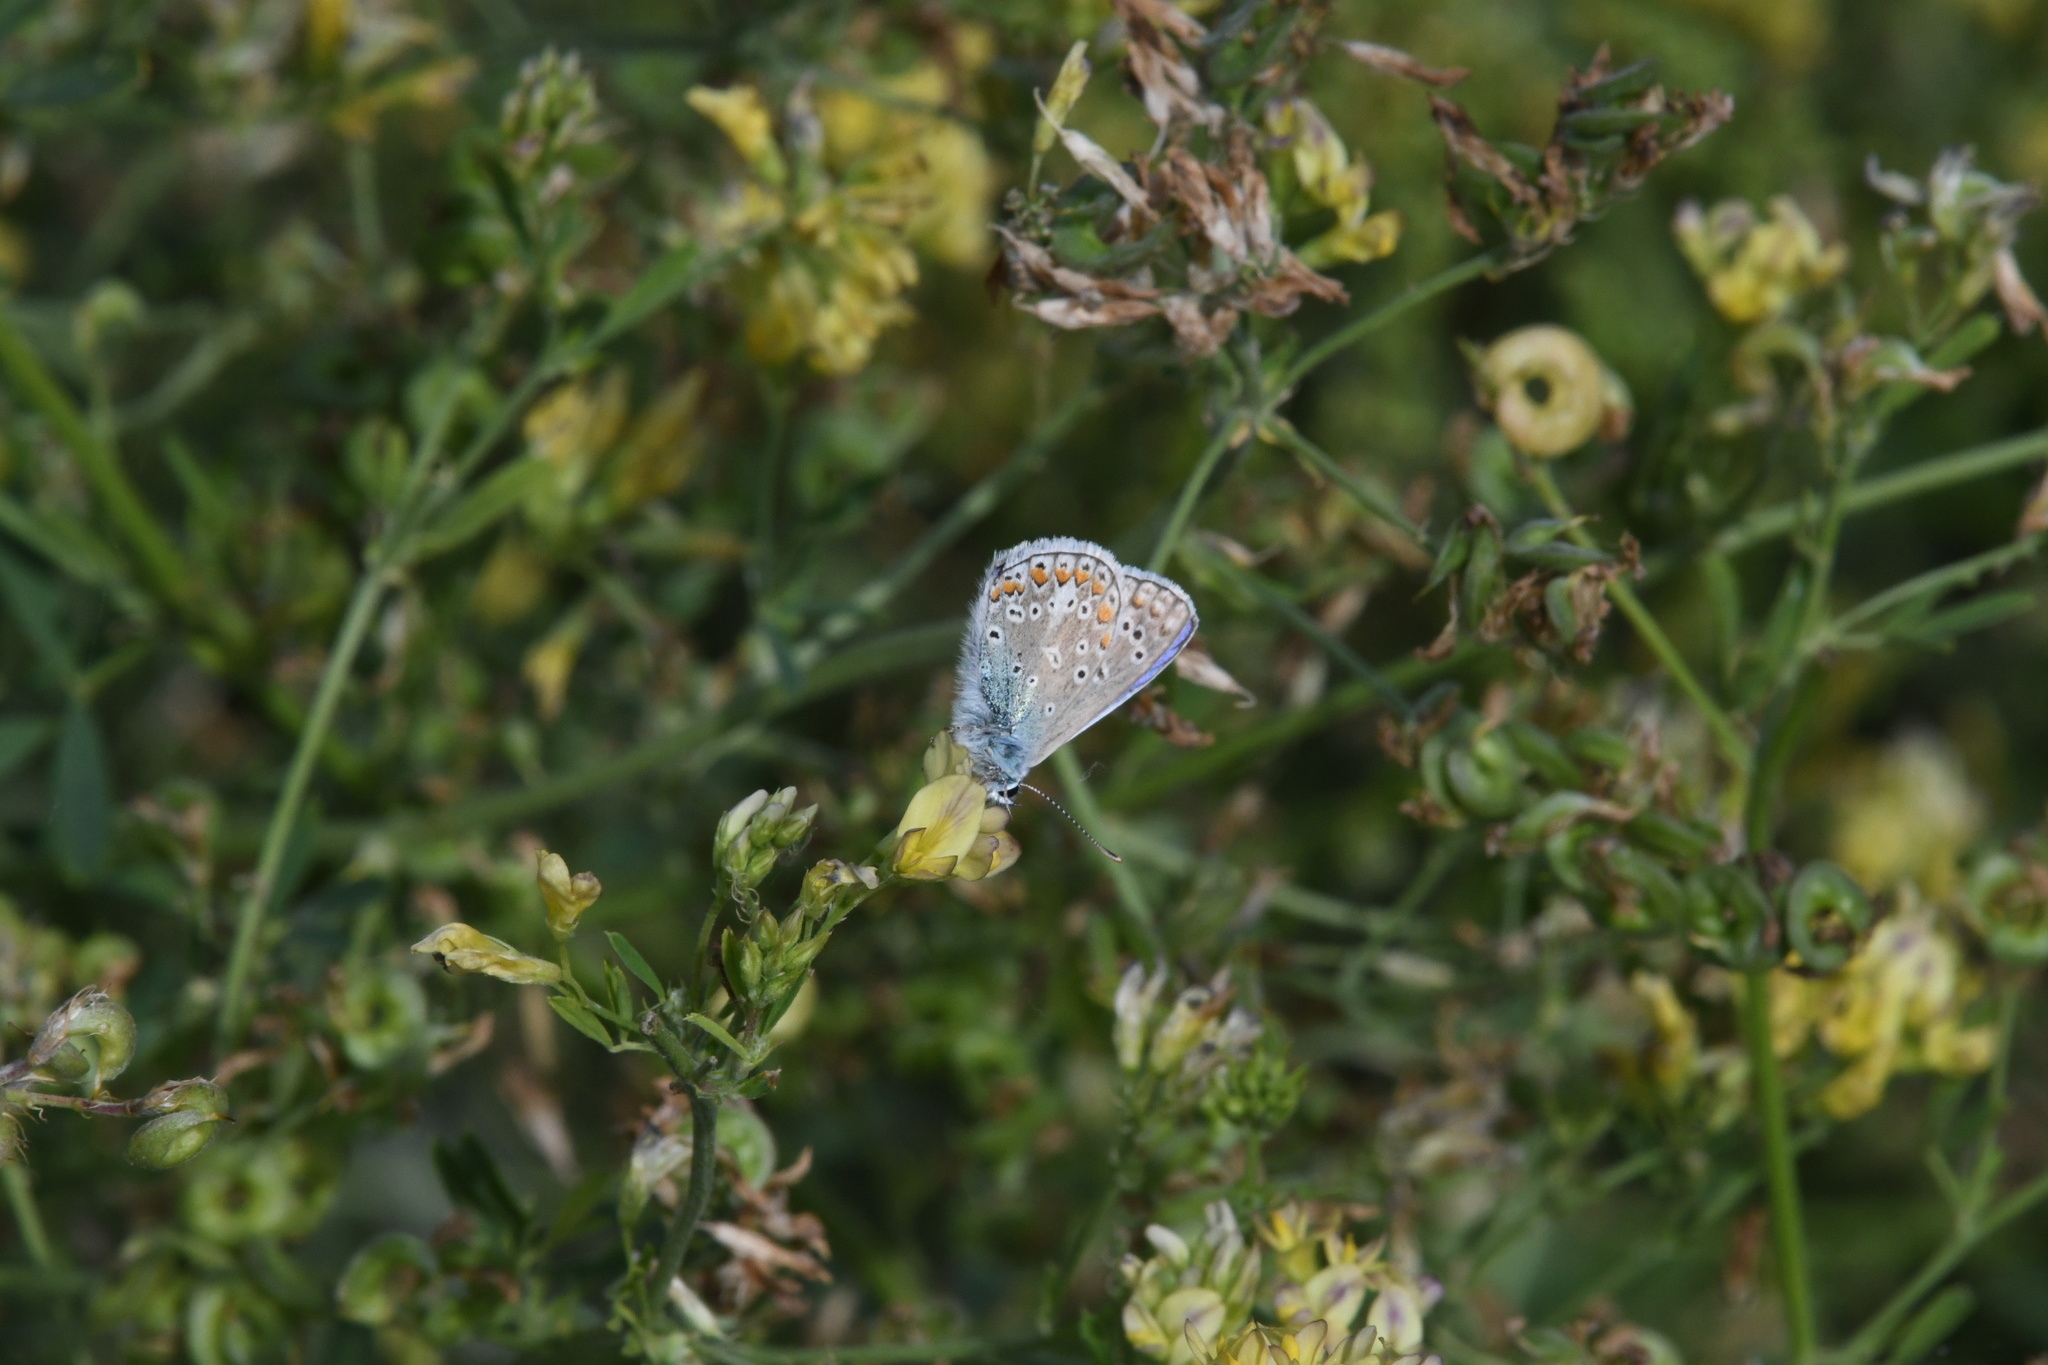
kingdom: Animalia
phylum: Arthropoda
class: Insecta
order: Lepidoptera
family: Lycaenidae
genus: Polyommatus
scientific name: Polyommatus icarus
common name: Common blue
